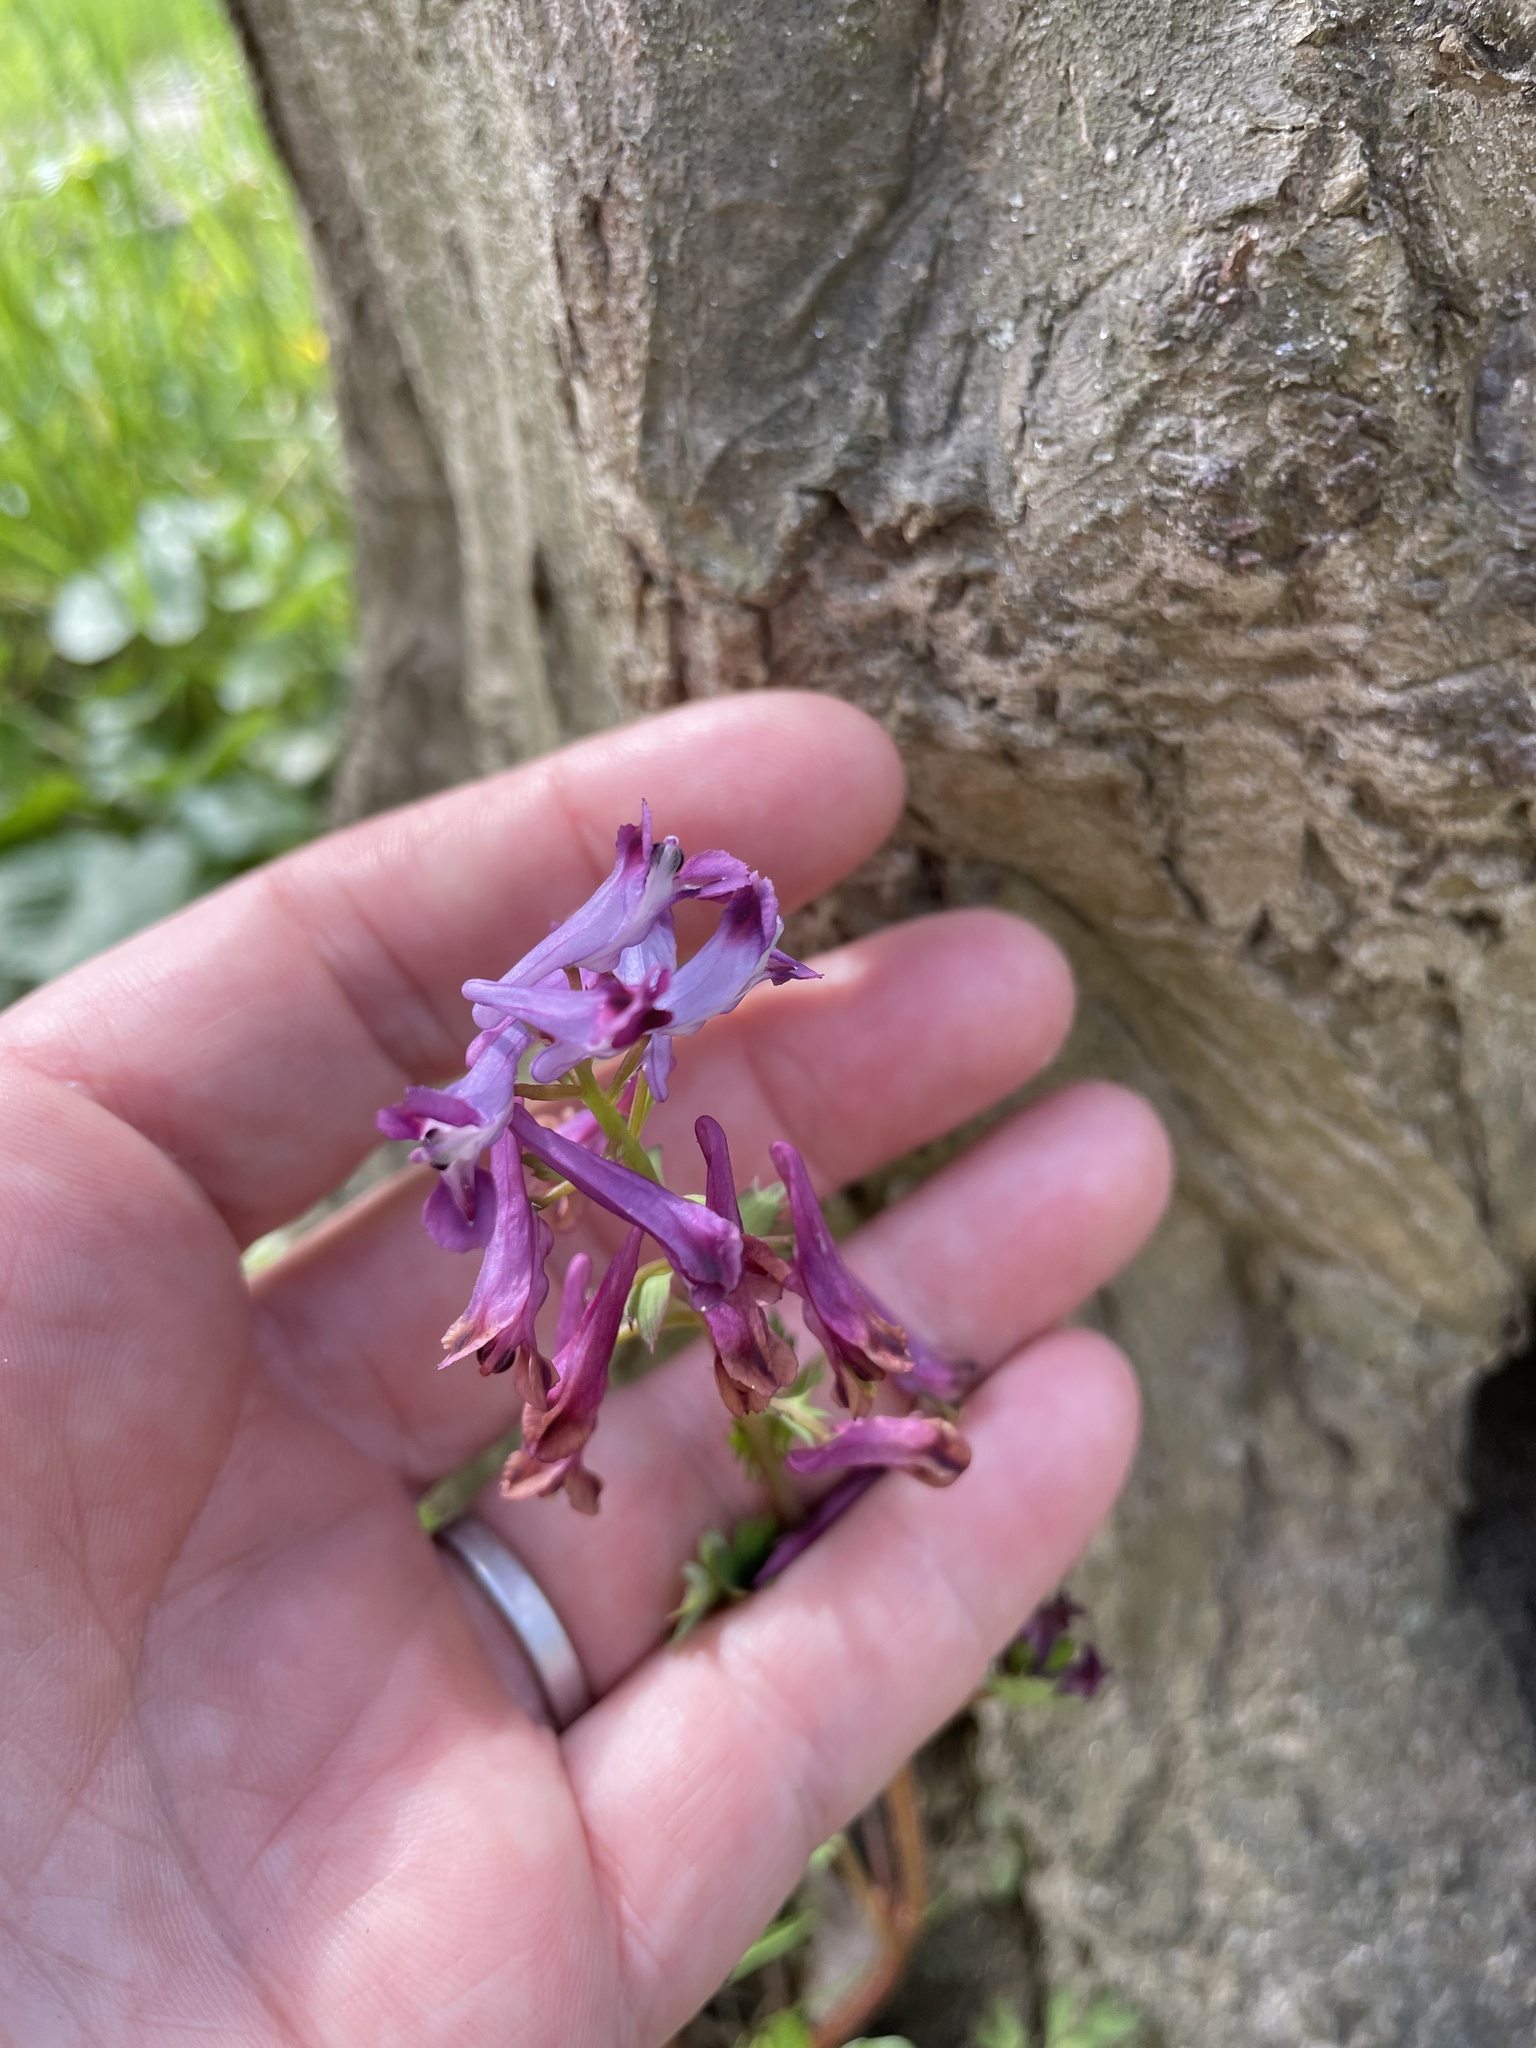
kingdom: Plantae
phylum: Tracheophyta
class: Magnoliopsida
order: Ranunculales
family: Papaveraceae
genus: Corydalis
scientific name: Corydalis incisa
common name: Incised fumewort
